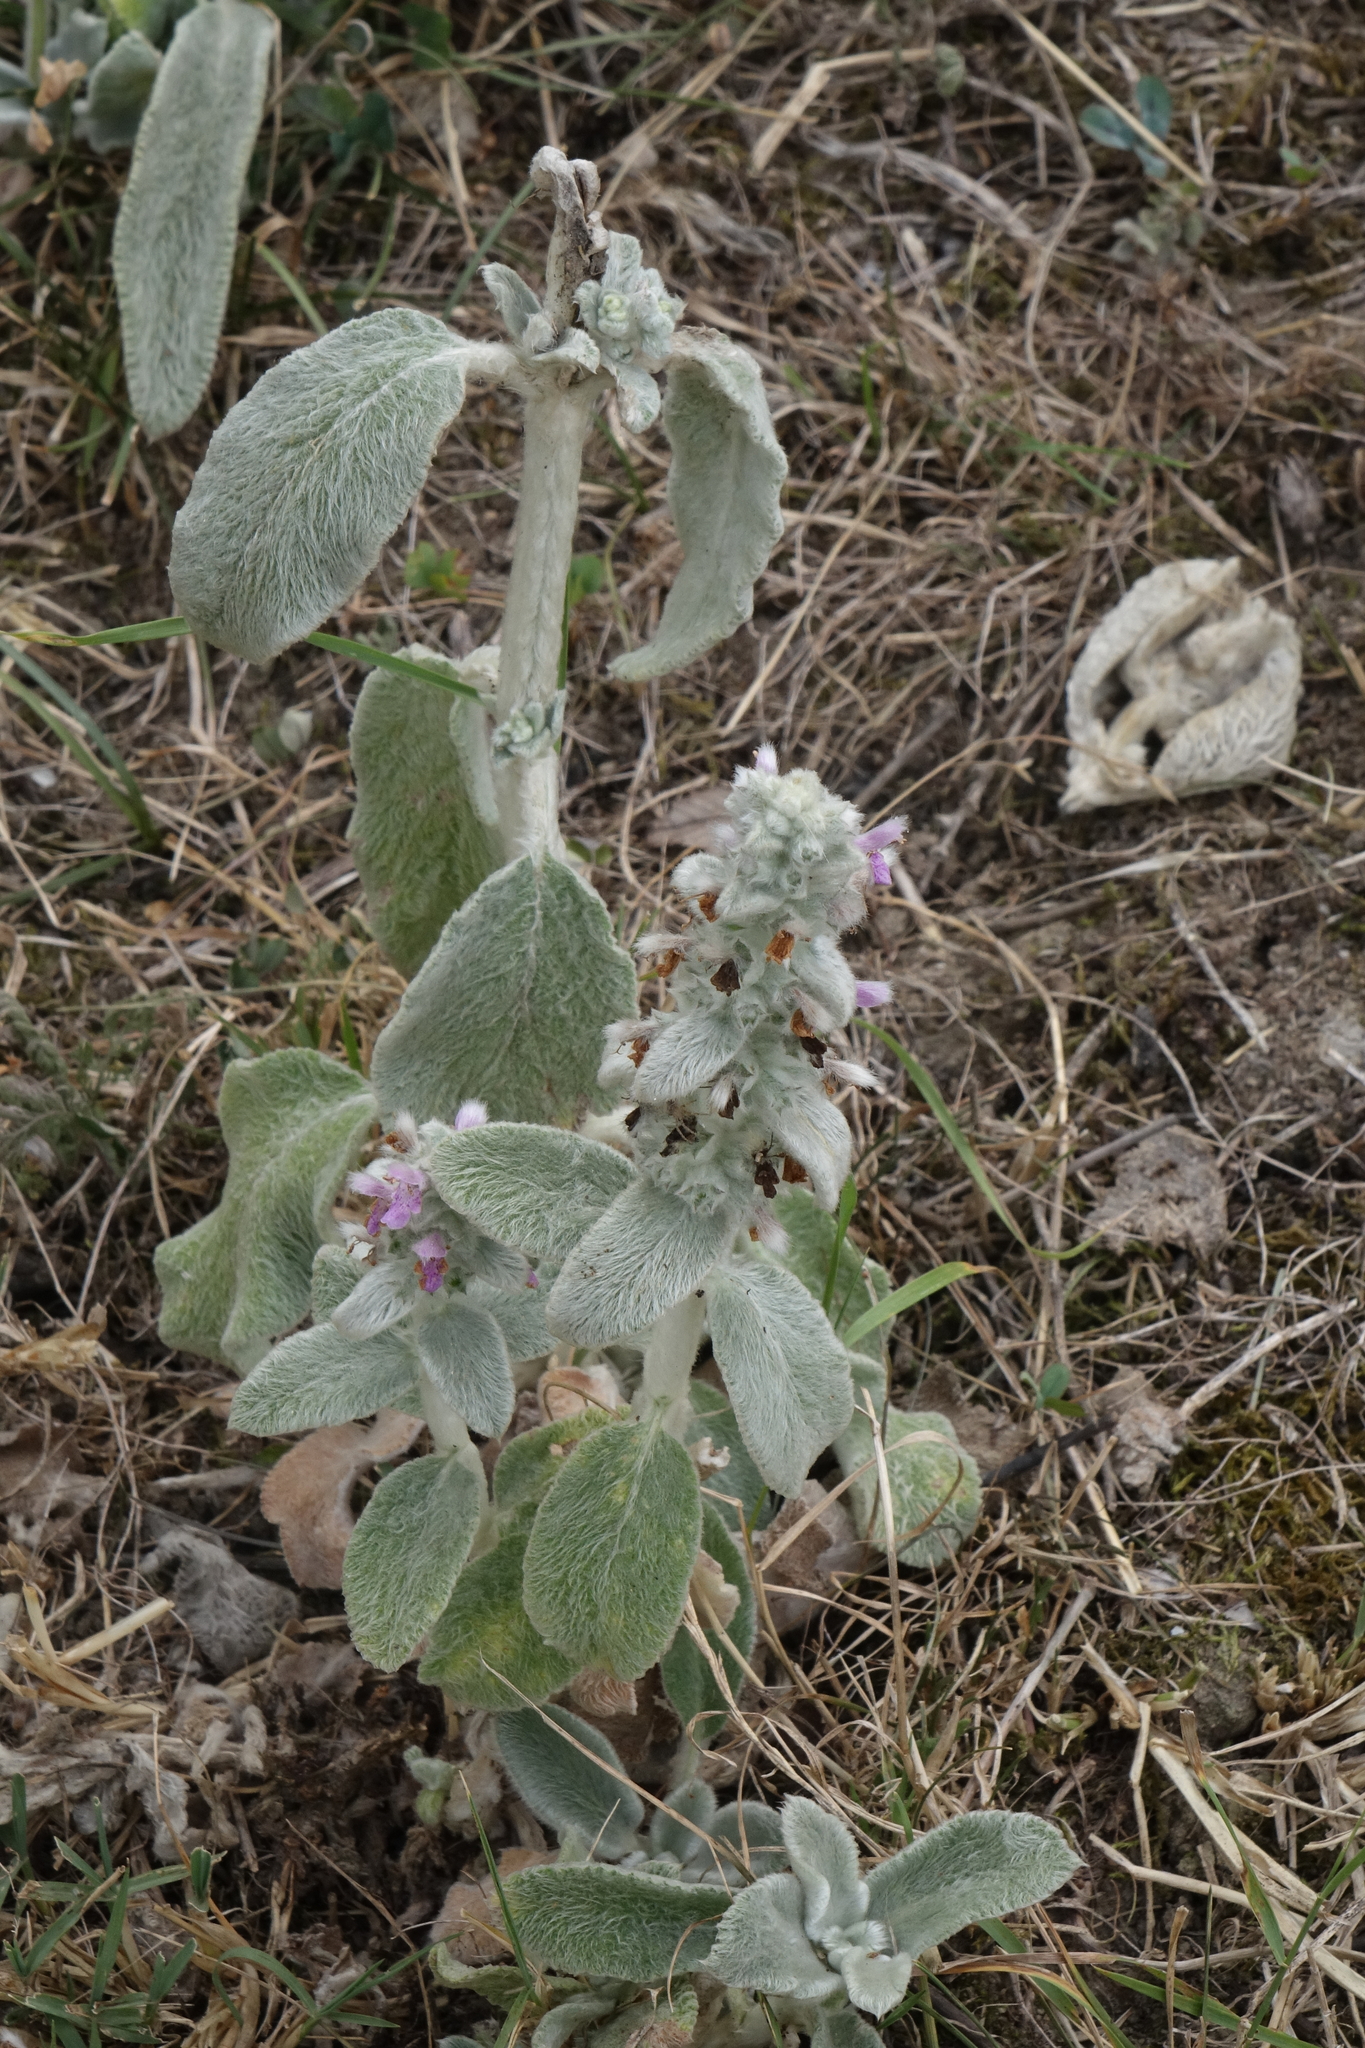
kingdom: Plantae
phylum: Tracheophyta
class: Magnoliopsida
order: Lamiales
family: Lamiaceae
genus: Stachys
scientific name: Stachys byzantina
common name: Lamb's-ear
